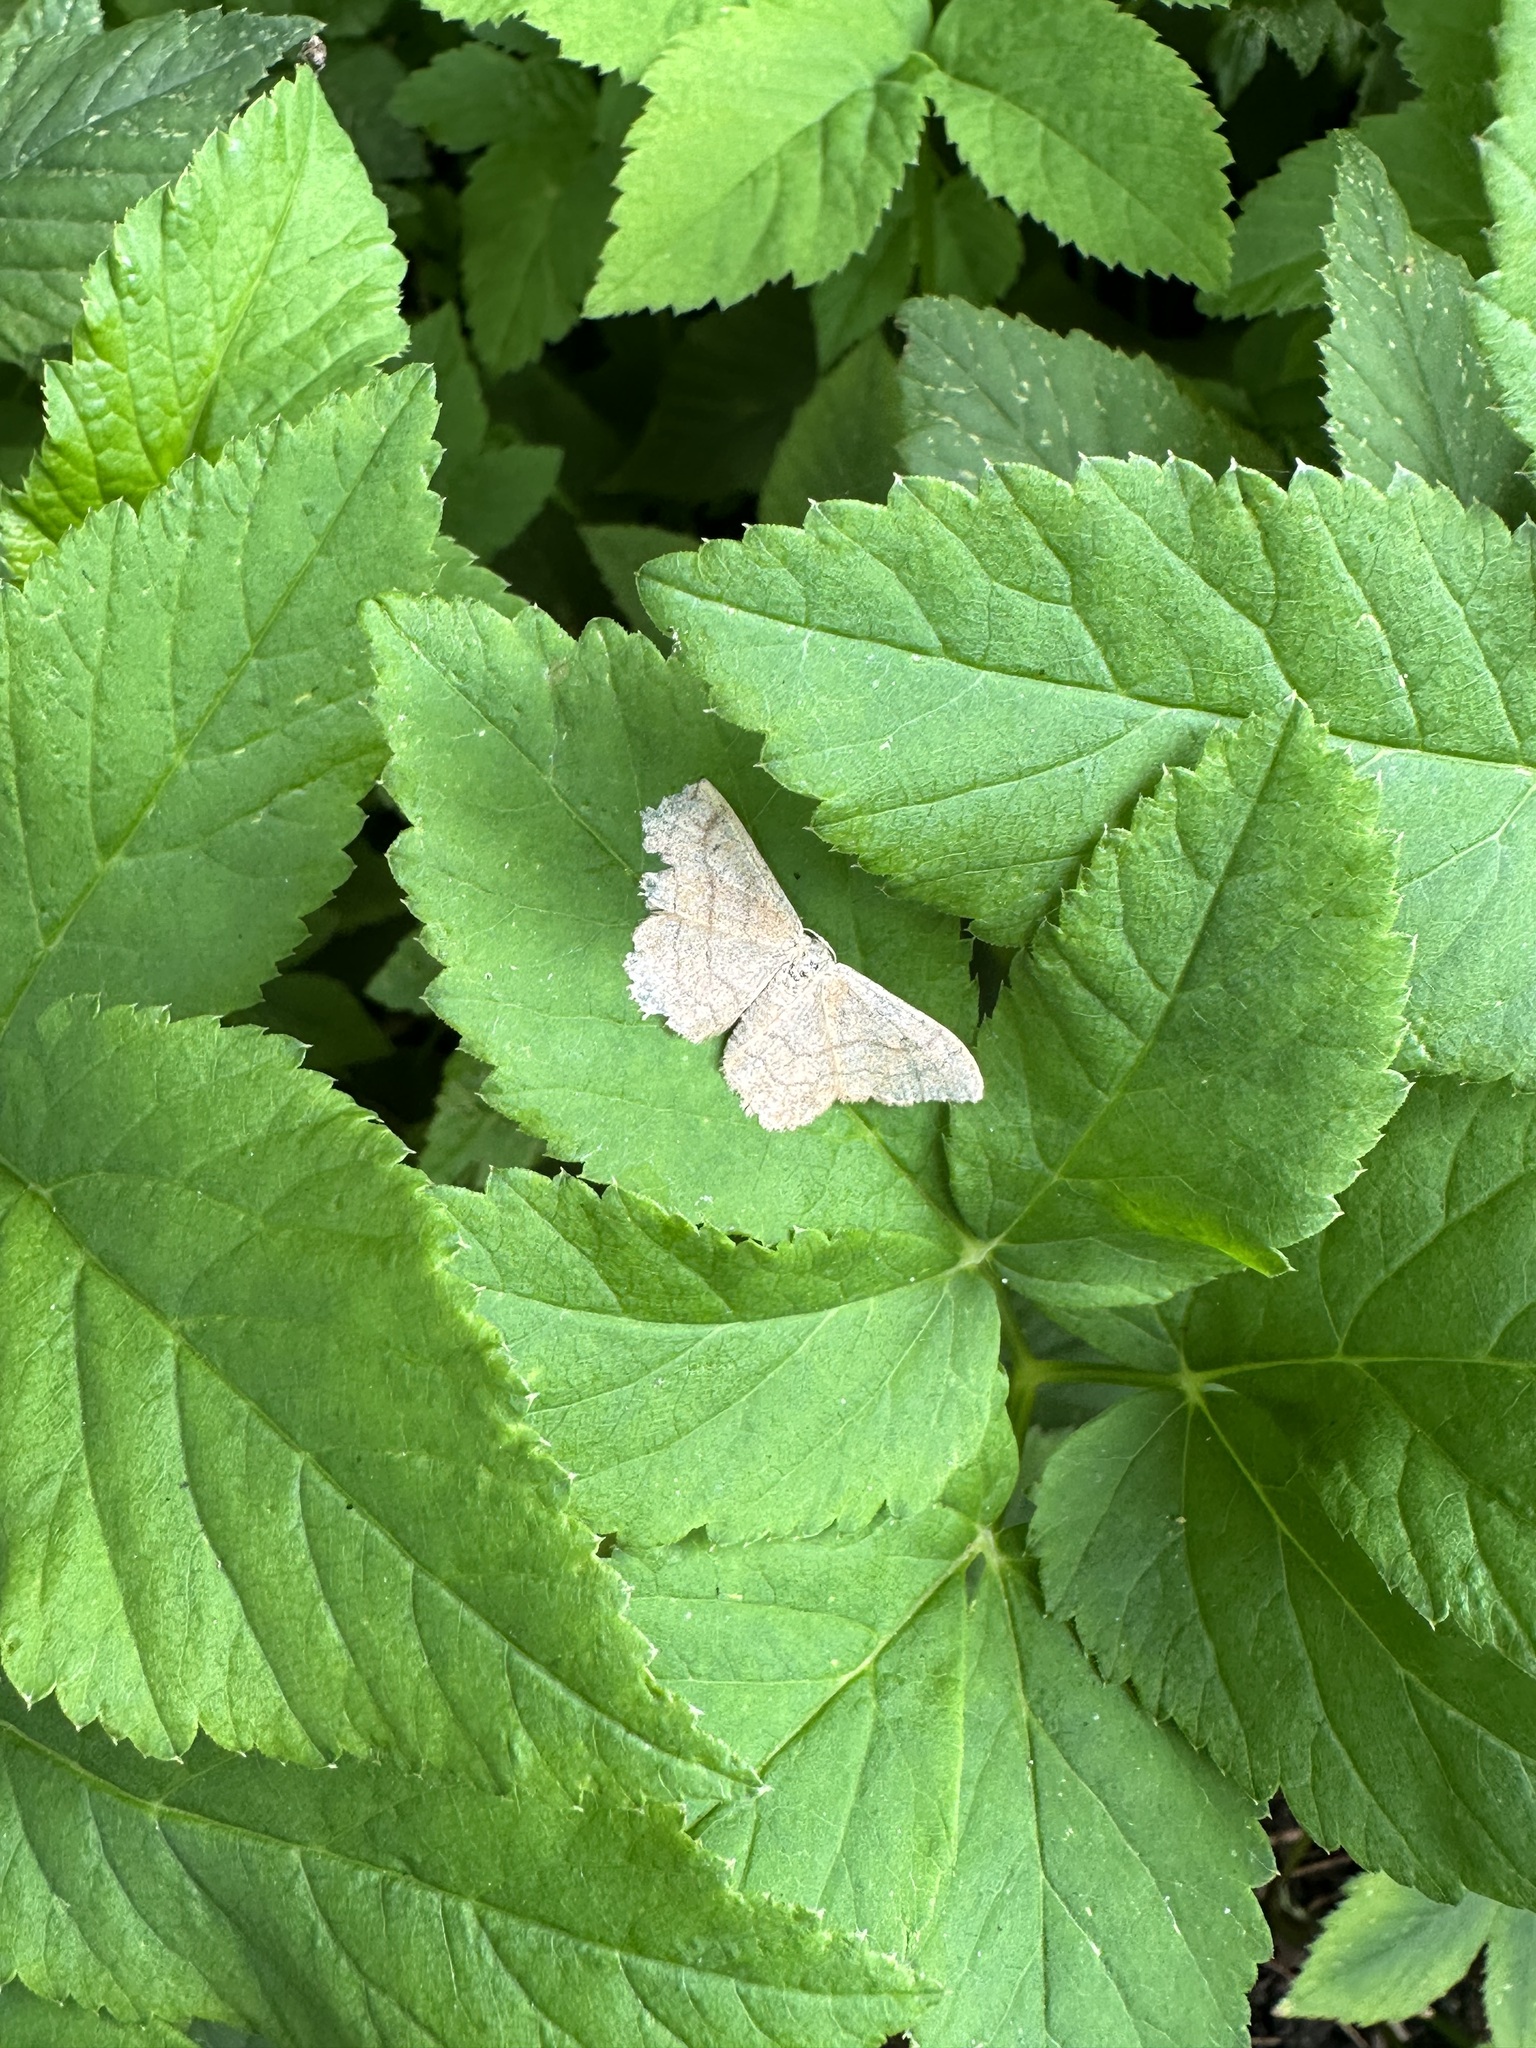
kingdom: Animalia
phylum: Arthropoda
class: Insecta
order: Lepidoptera
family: Geometridae
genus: Idaea
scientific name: Idaea aversata
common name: Riband wave
